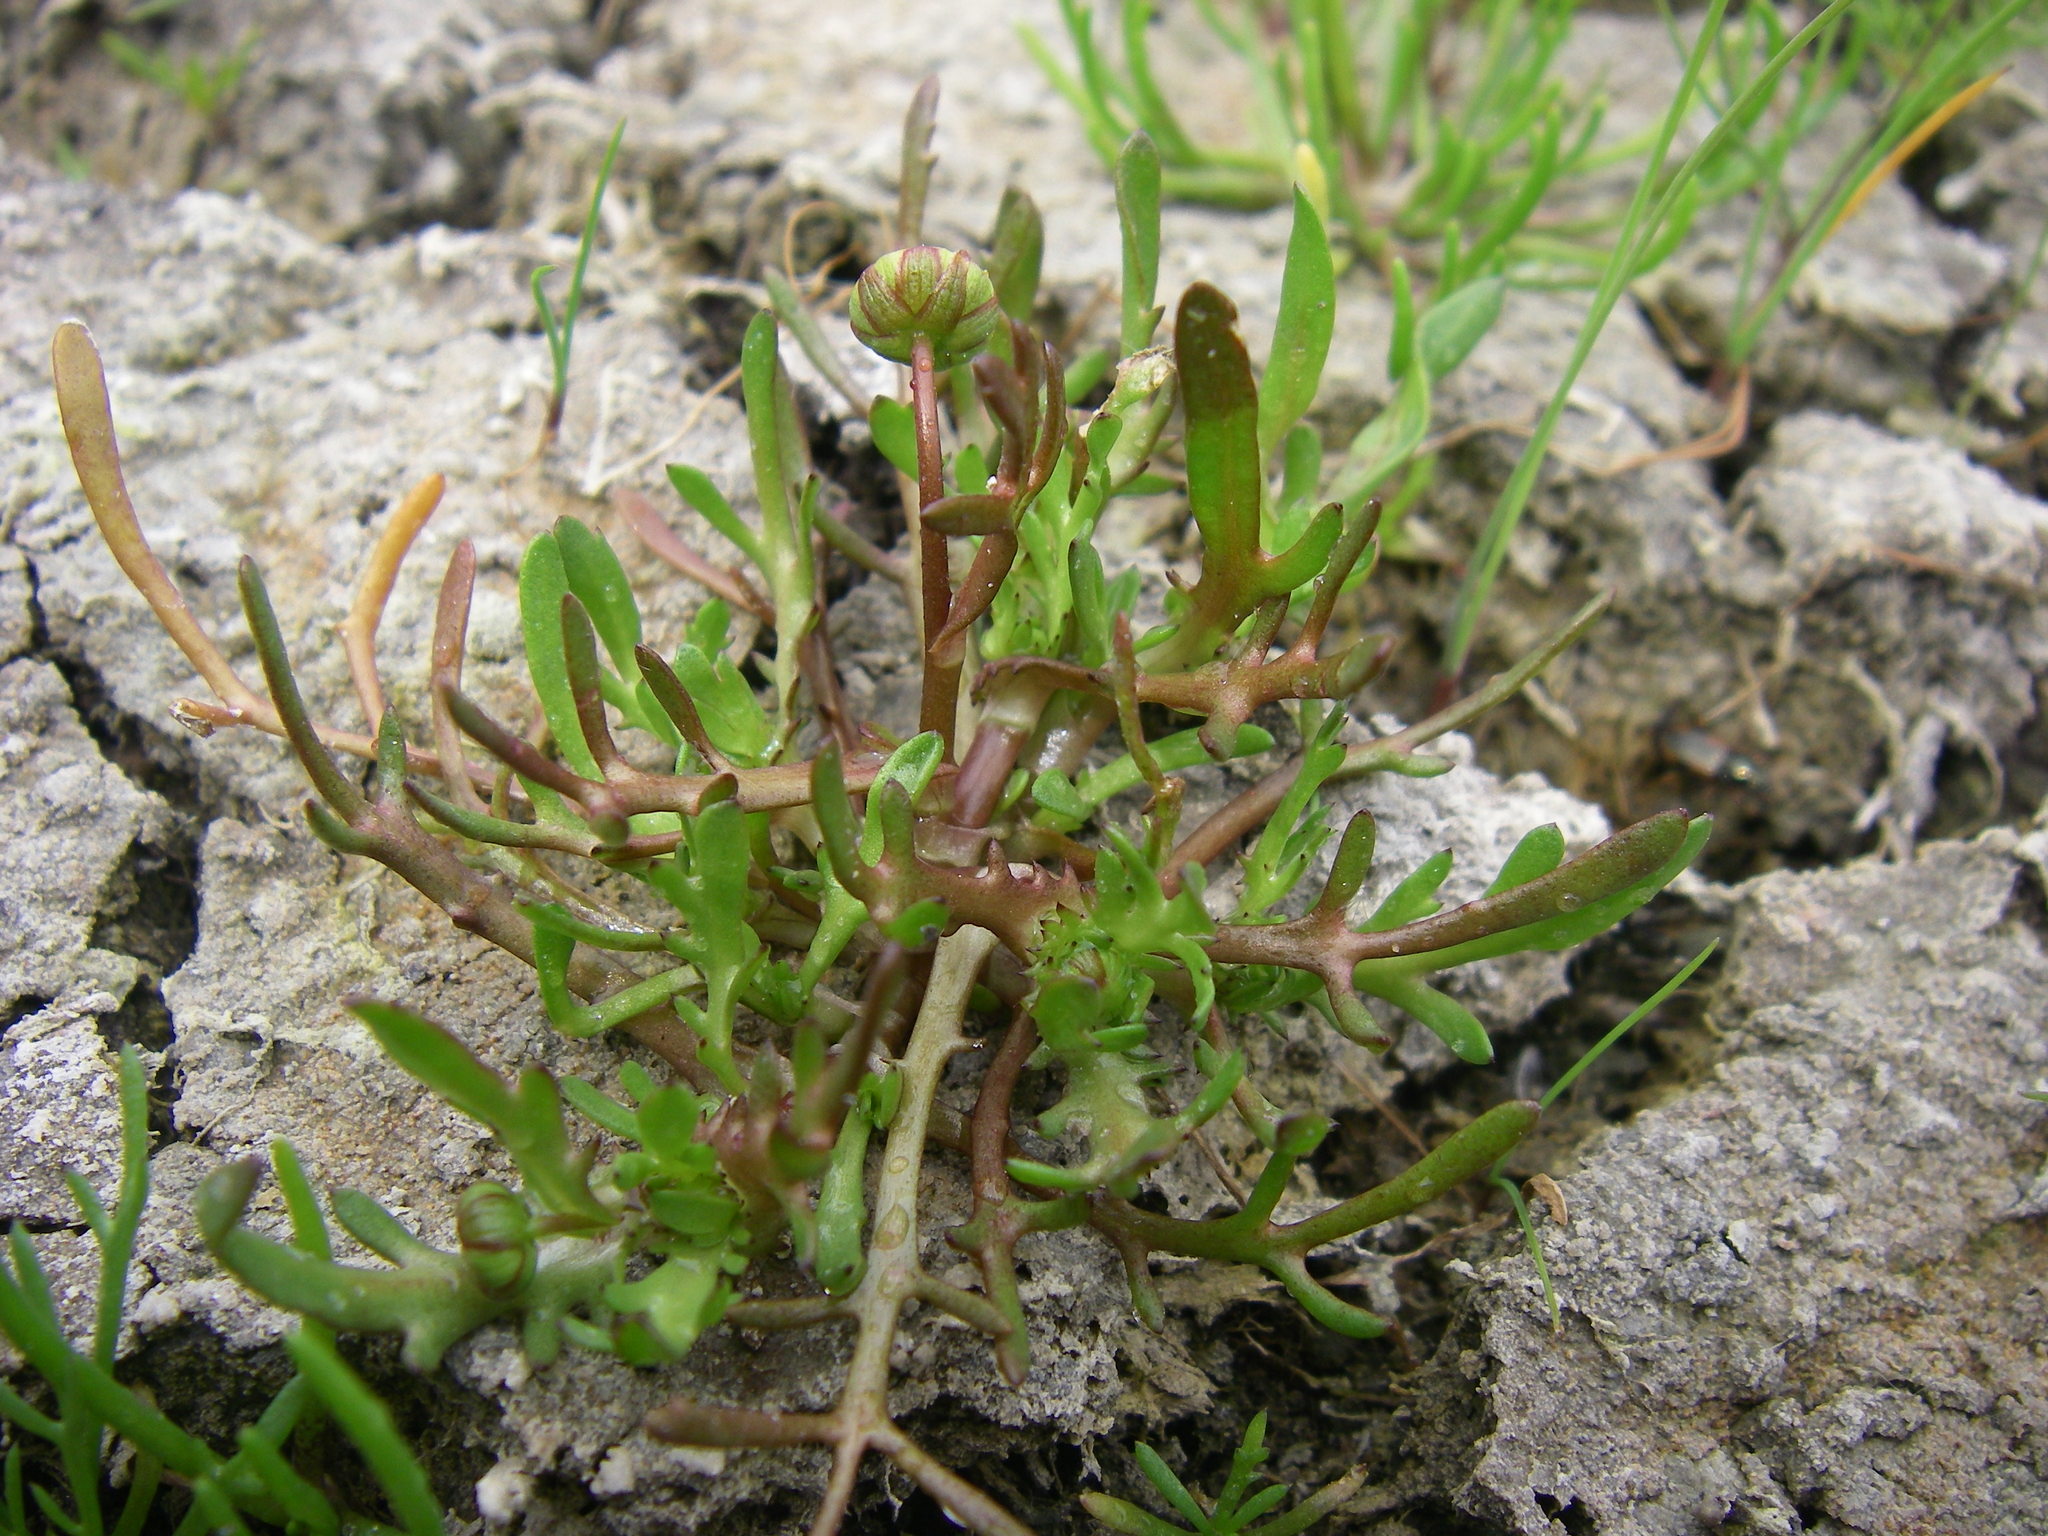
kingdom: Plantae
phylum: Tracheophyta
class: Magnoliopsida
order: Asterales
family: Asteraceae
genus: Cotula
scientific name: Cotula coronopifolia
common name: Buttonweed
